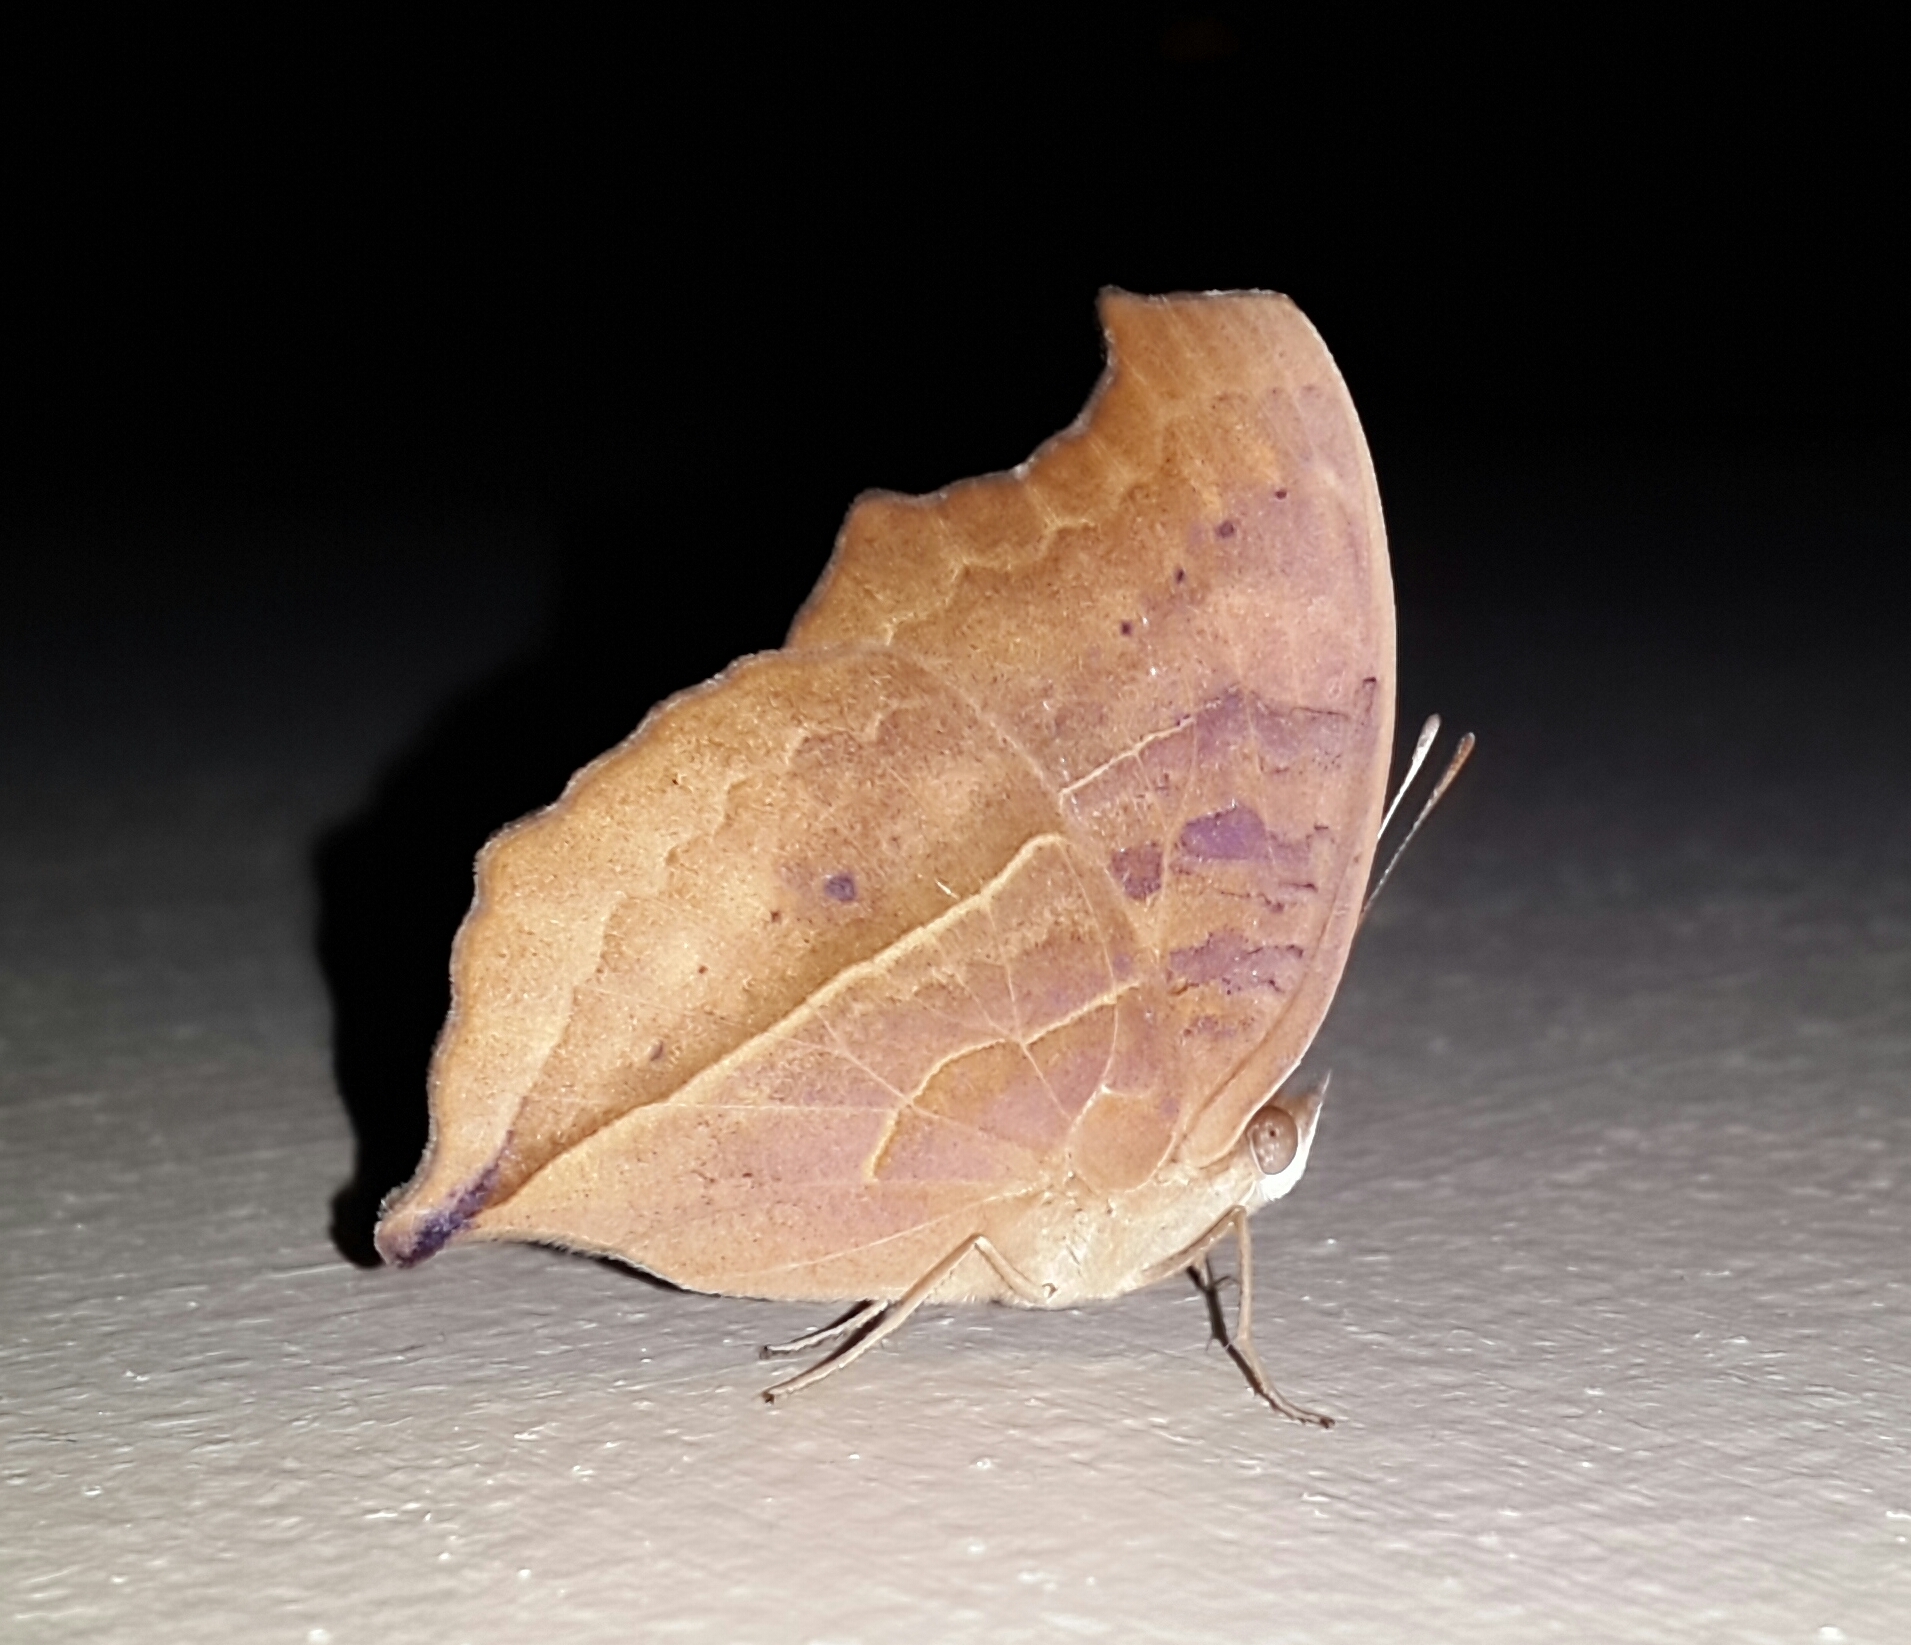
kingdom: Animalia
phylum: Arthropoda
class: Insecta
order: Lepidoptera
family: Nymphalidae
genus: Junonia
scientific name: Junonia almana
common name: Peacock pansy
